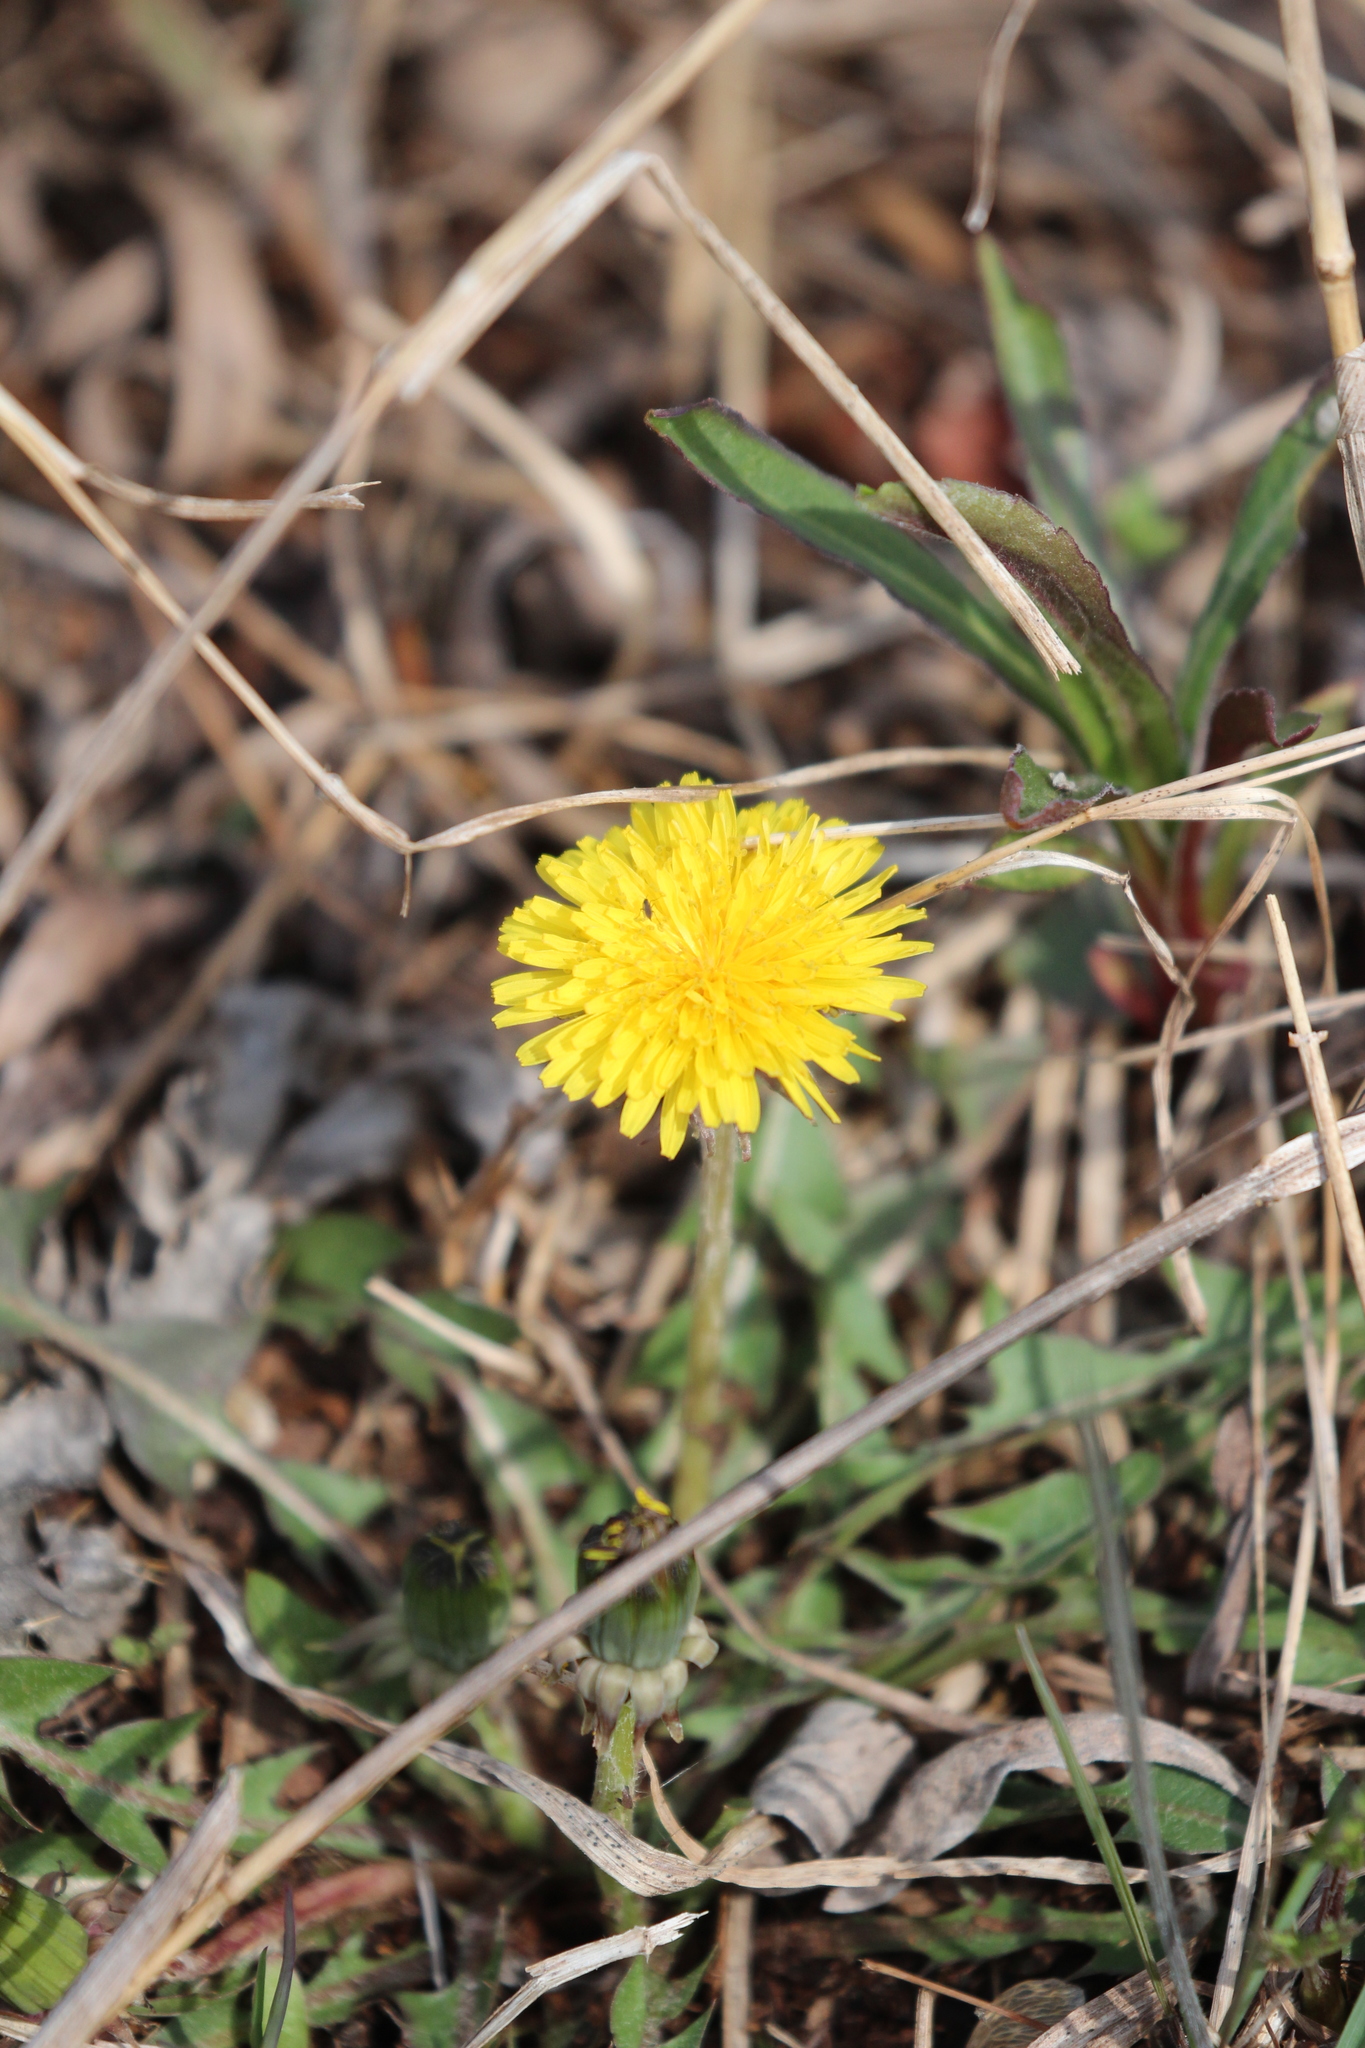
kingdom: Plantae
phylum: Tracheophyta
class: Magnoliopsida
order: Asterales
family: Asteraceae
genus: Taraxacum
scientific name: Taraxacum officinale
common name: Common dandelion
